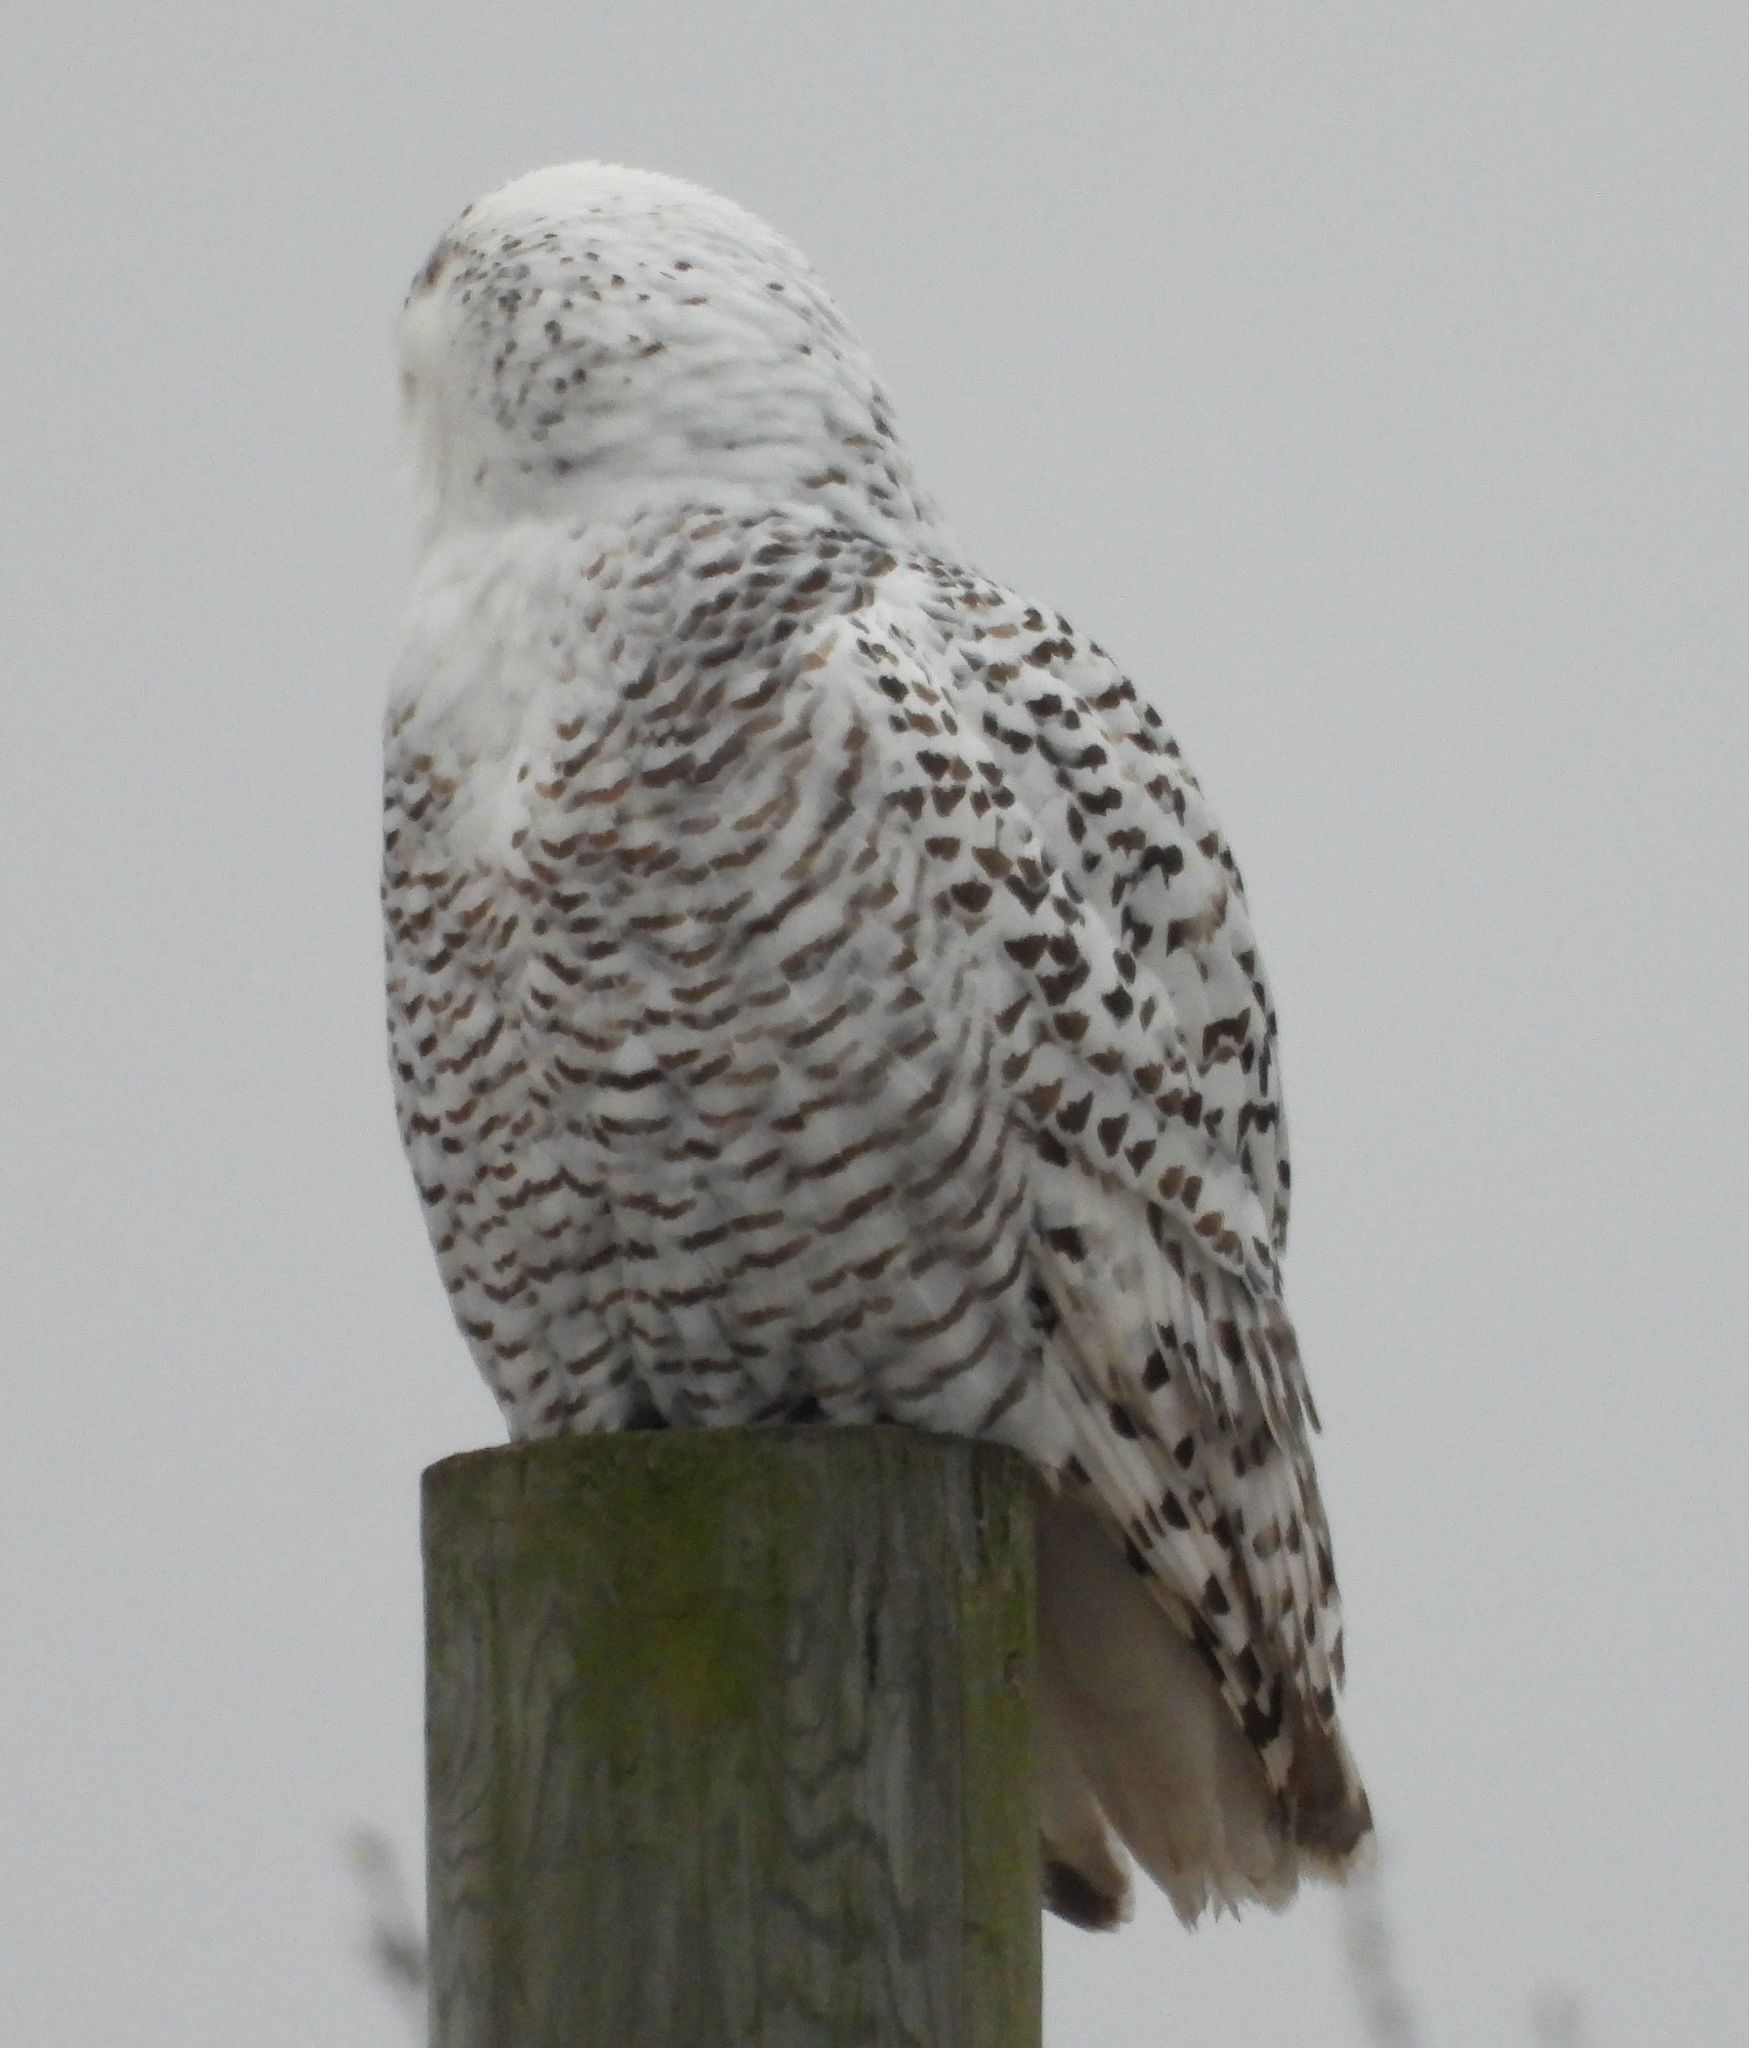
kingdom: Animalia
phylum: Chordata
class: Aves
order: Strigiformes
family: Strigidae
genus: Bubo
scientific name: Bubo scandiacus
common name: Snowy owl
